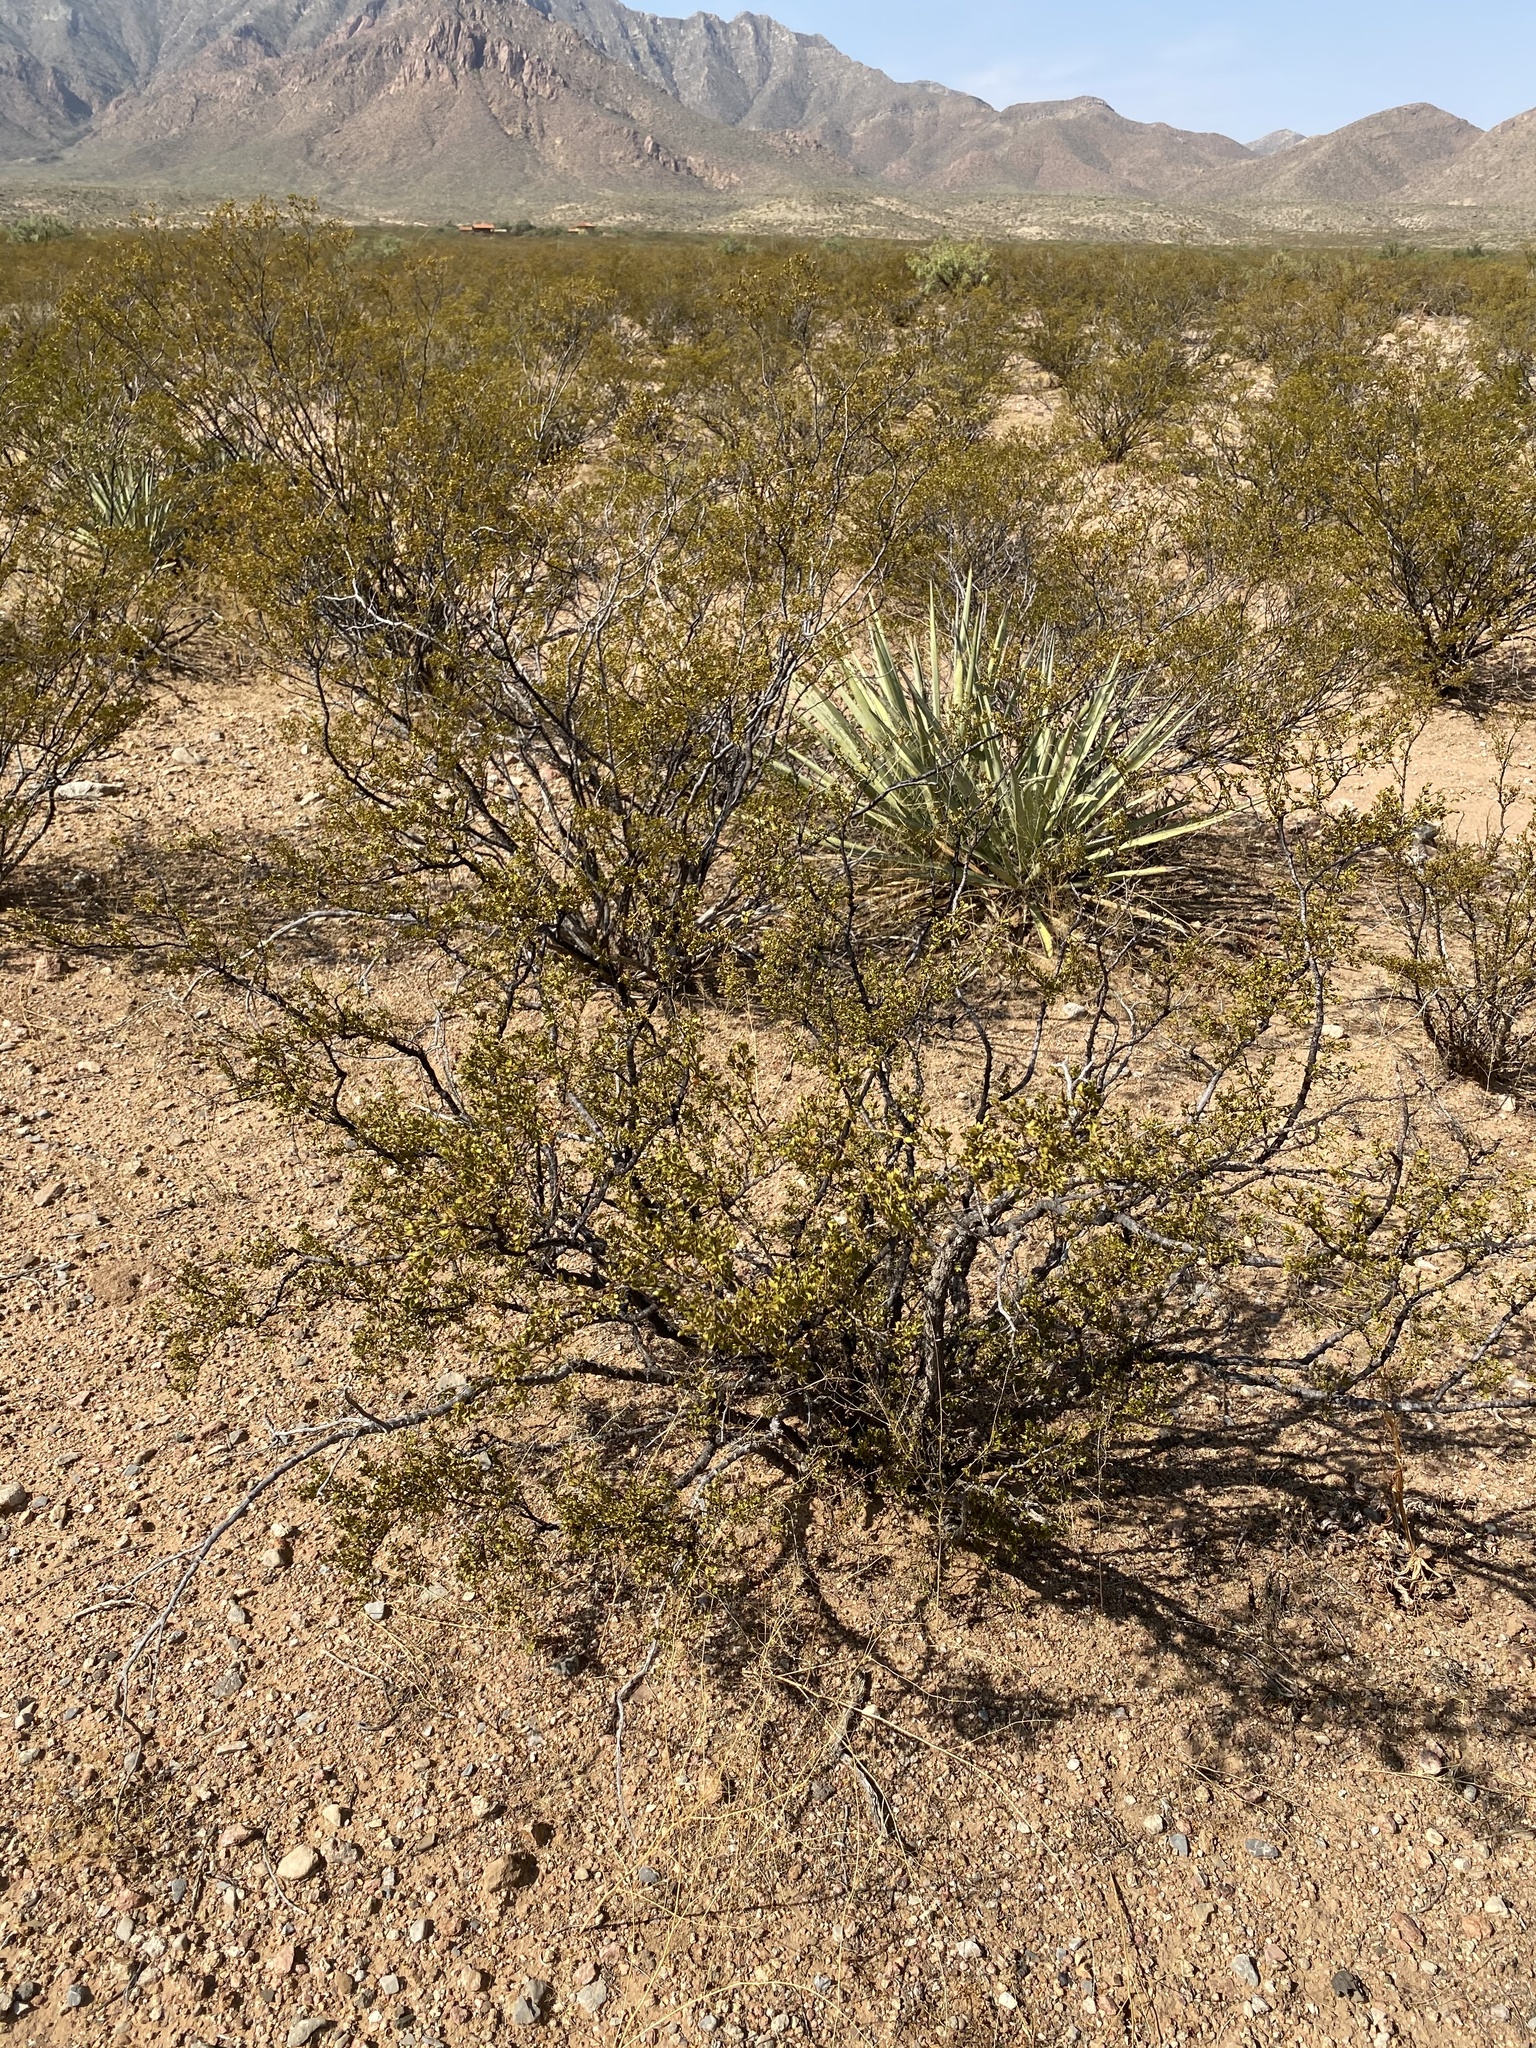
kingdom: Plantae
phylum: Tracheophyta
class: Magnoliopsida
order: Zygophyllales
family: Zygophyllaceae
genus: Larrea
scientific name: Larrea tridentata
